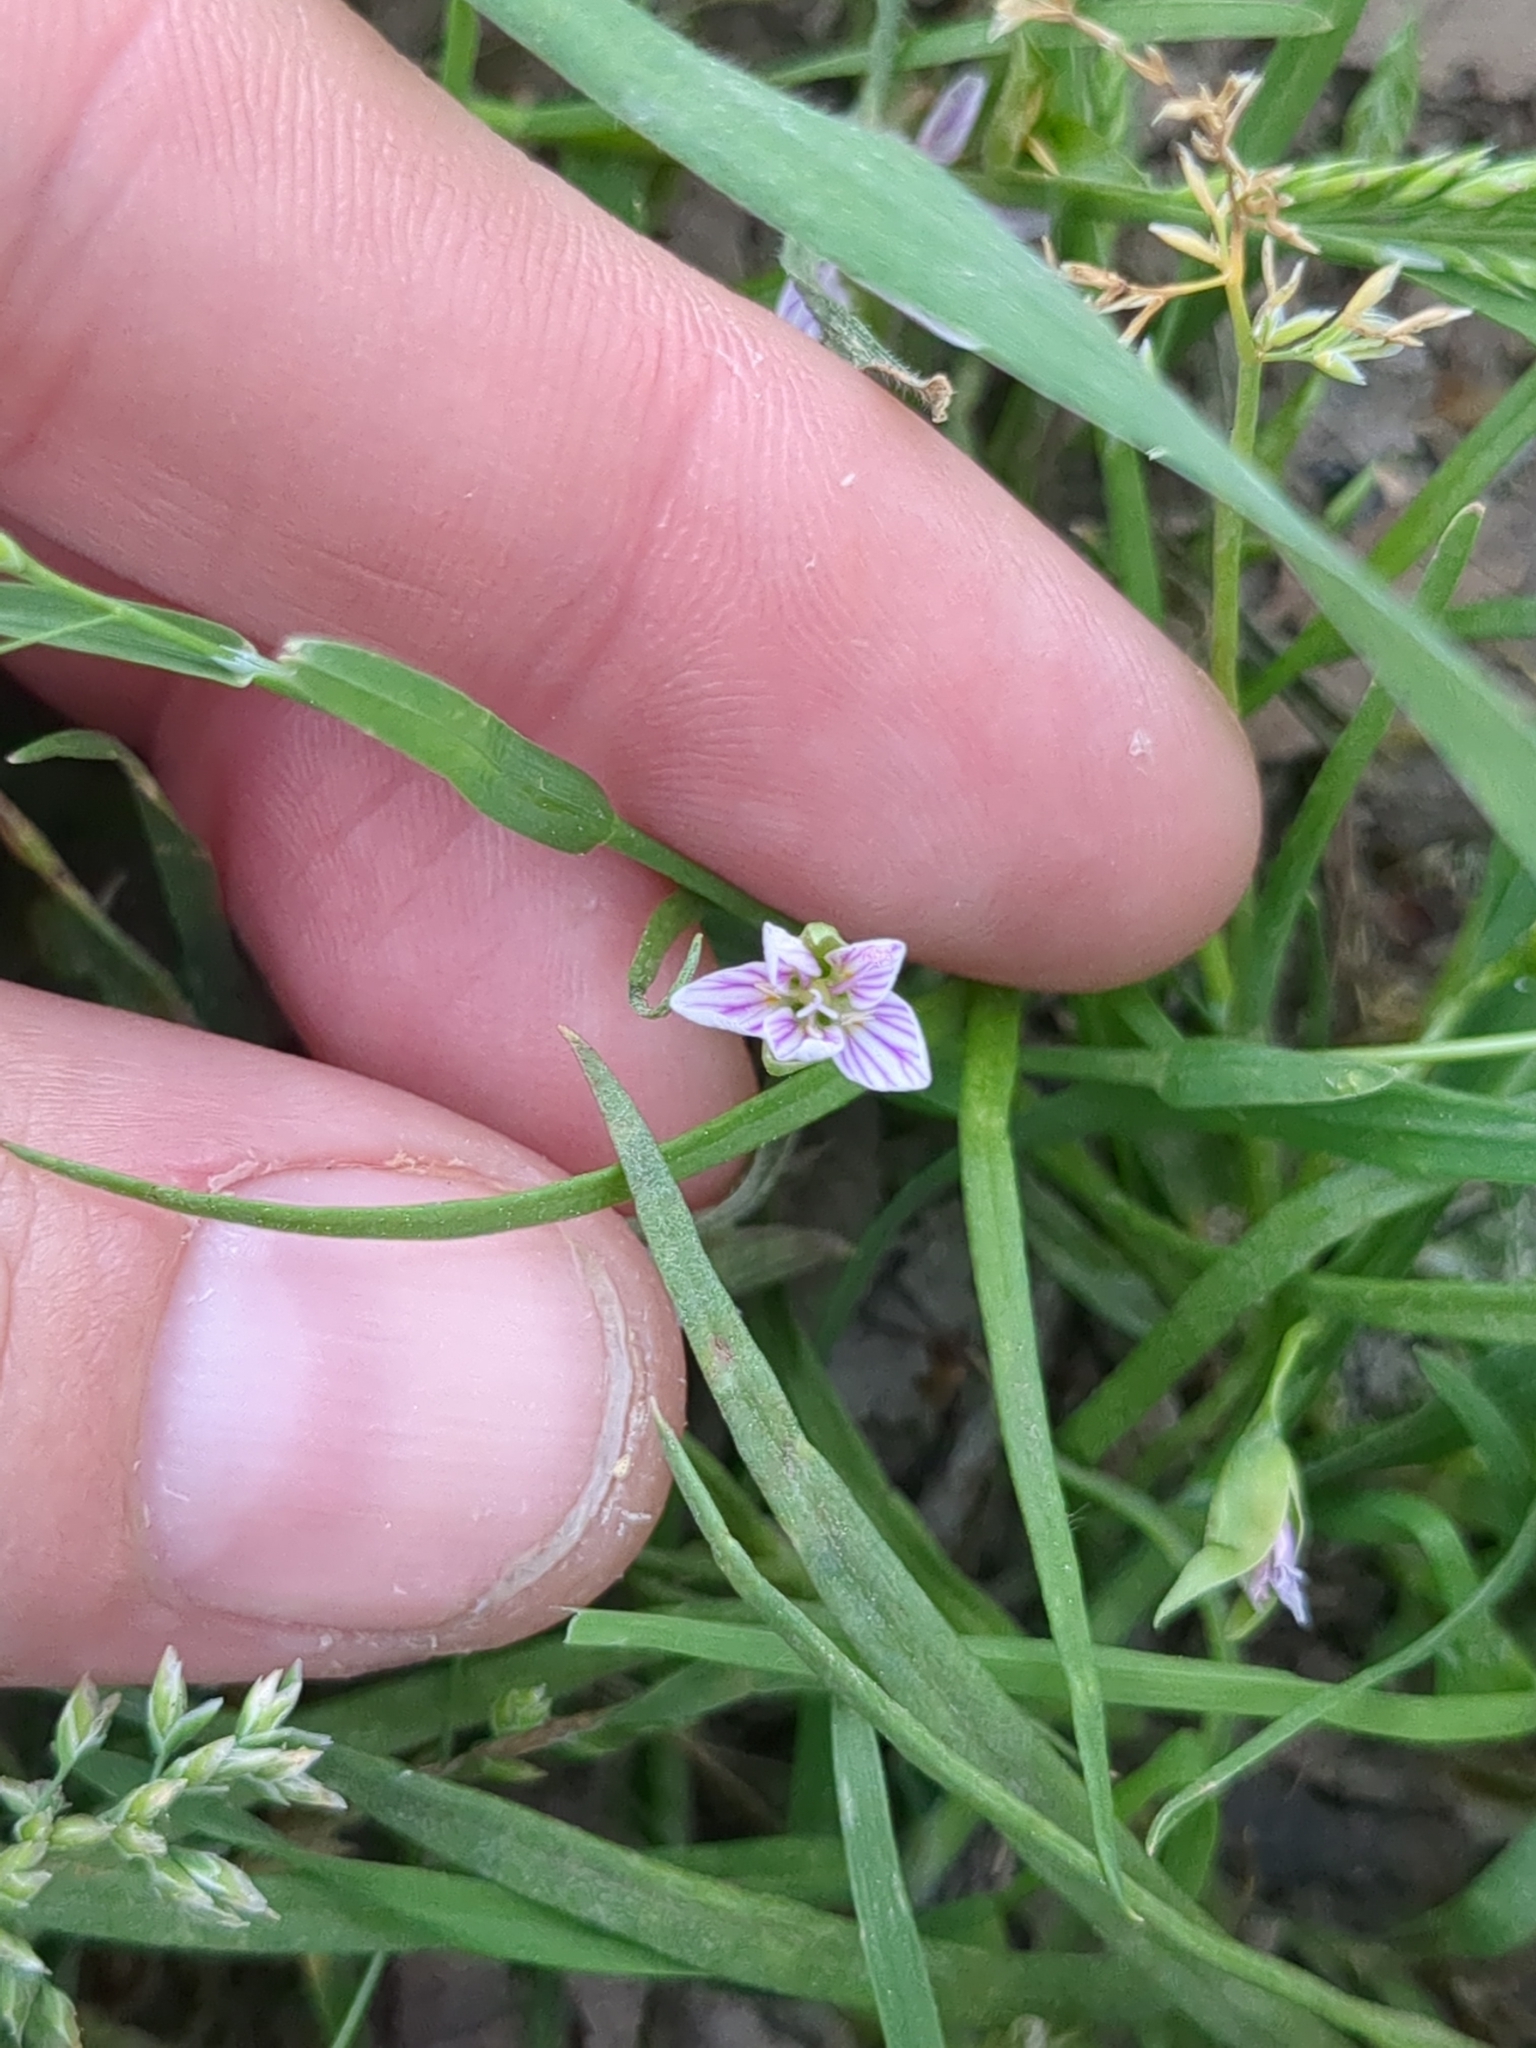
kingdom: Plantae
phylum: Tracheophyta
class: Magnoliopsida
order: Caryophyllales
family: Montiaceae
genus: Claytonia
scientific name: Claytonia virginica
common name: Virginia springbeauty
